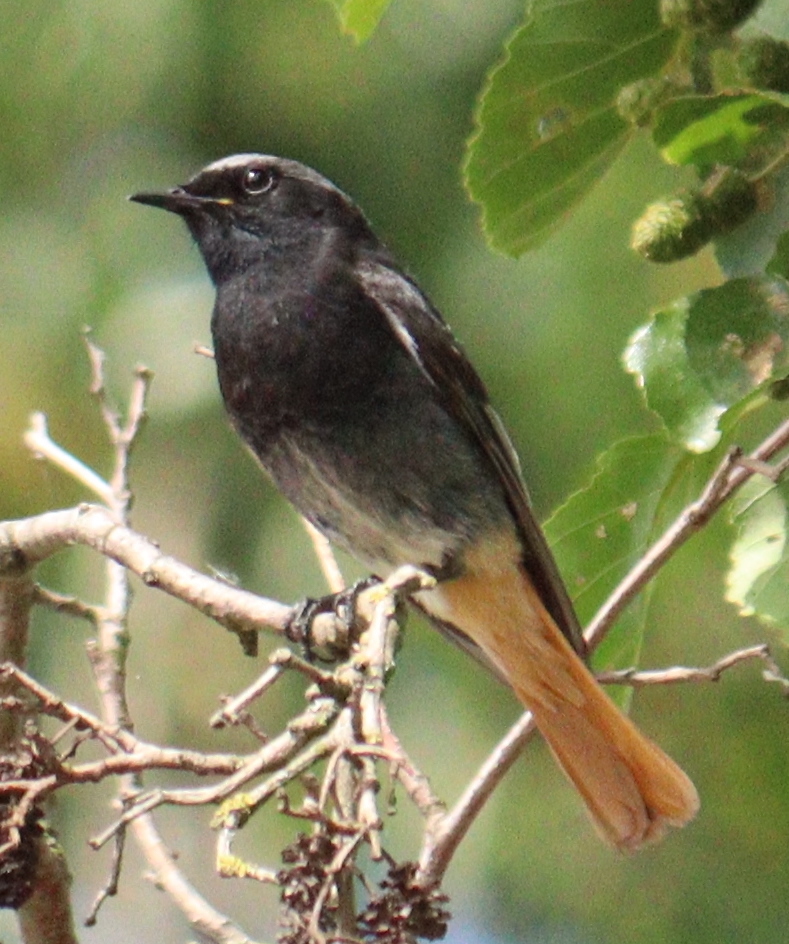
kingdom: Animalia
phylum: Chordata
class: Aves
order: Passeriformes
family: Muscicapidae
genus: Phoenicurus
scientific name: Phoenicurus ochruros
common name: Black redstart
